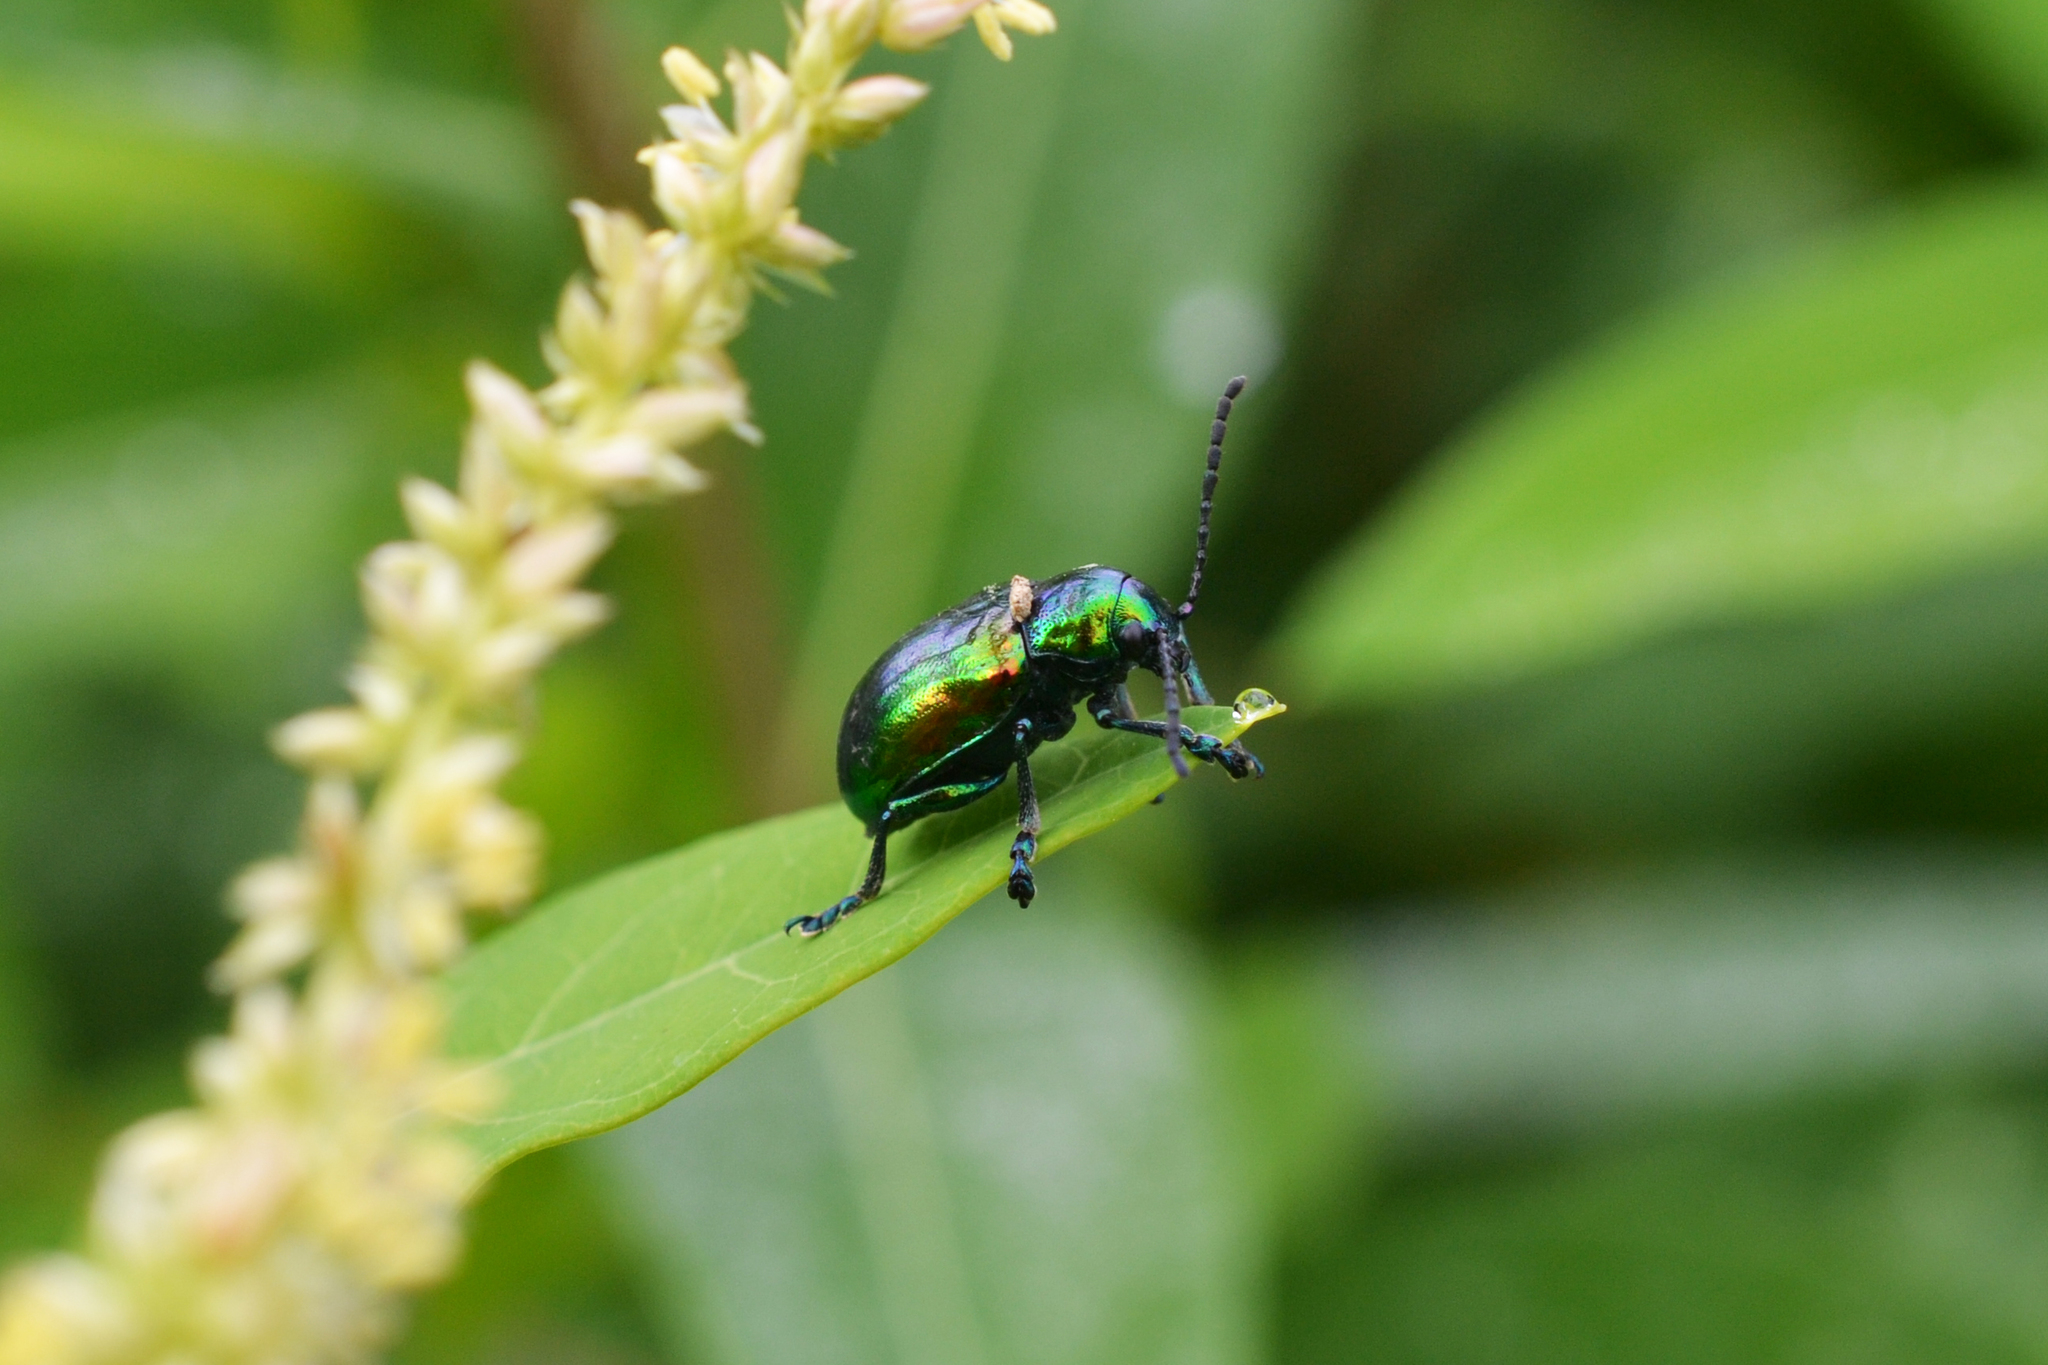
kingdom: Animalia
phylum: Arthropoda
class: Insecta
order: Coleoptera
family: Chrysomelidae
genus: Chrysochus
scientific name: Chrysochus auratus
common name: Dogbane leaf beetle
